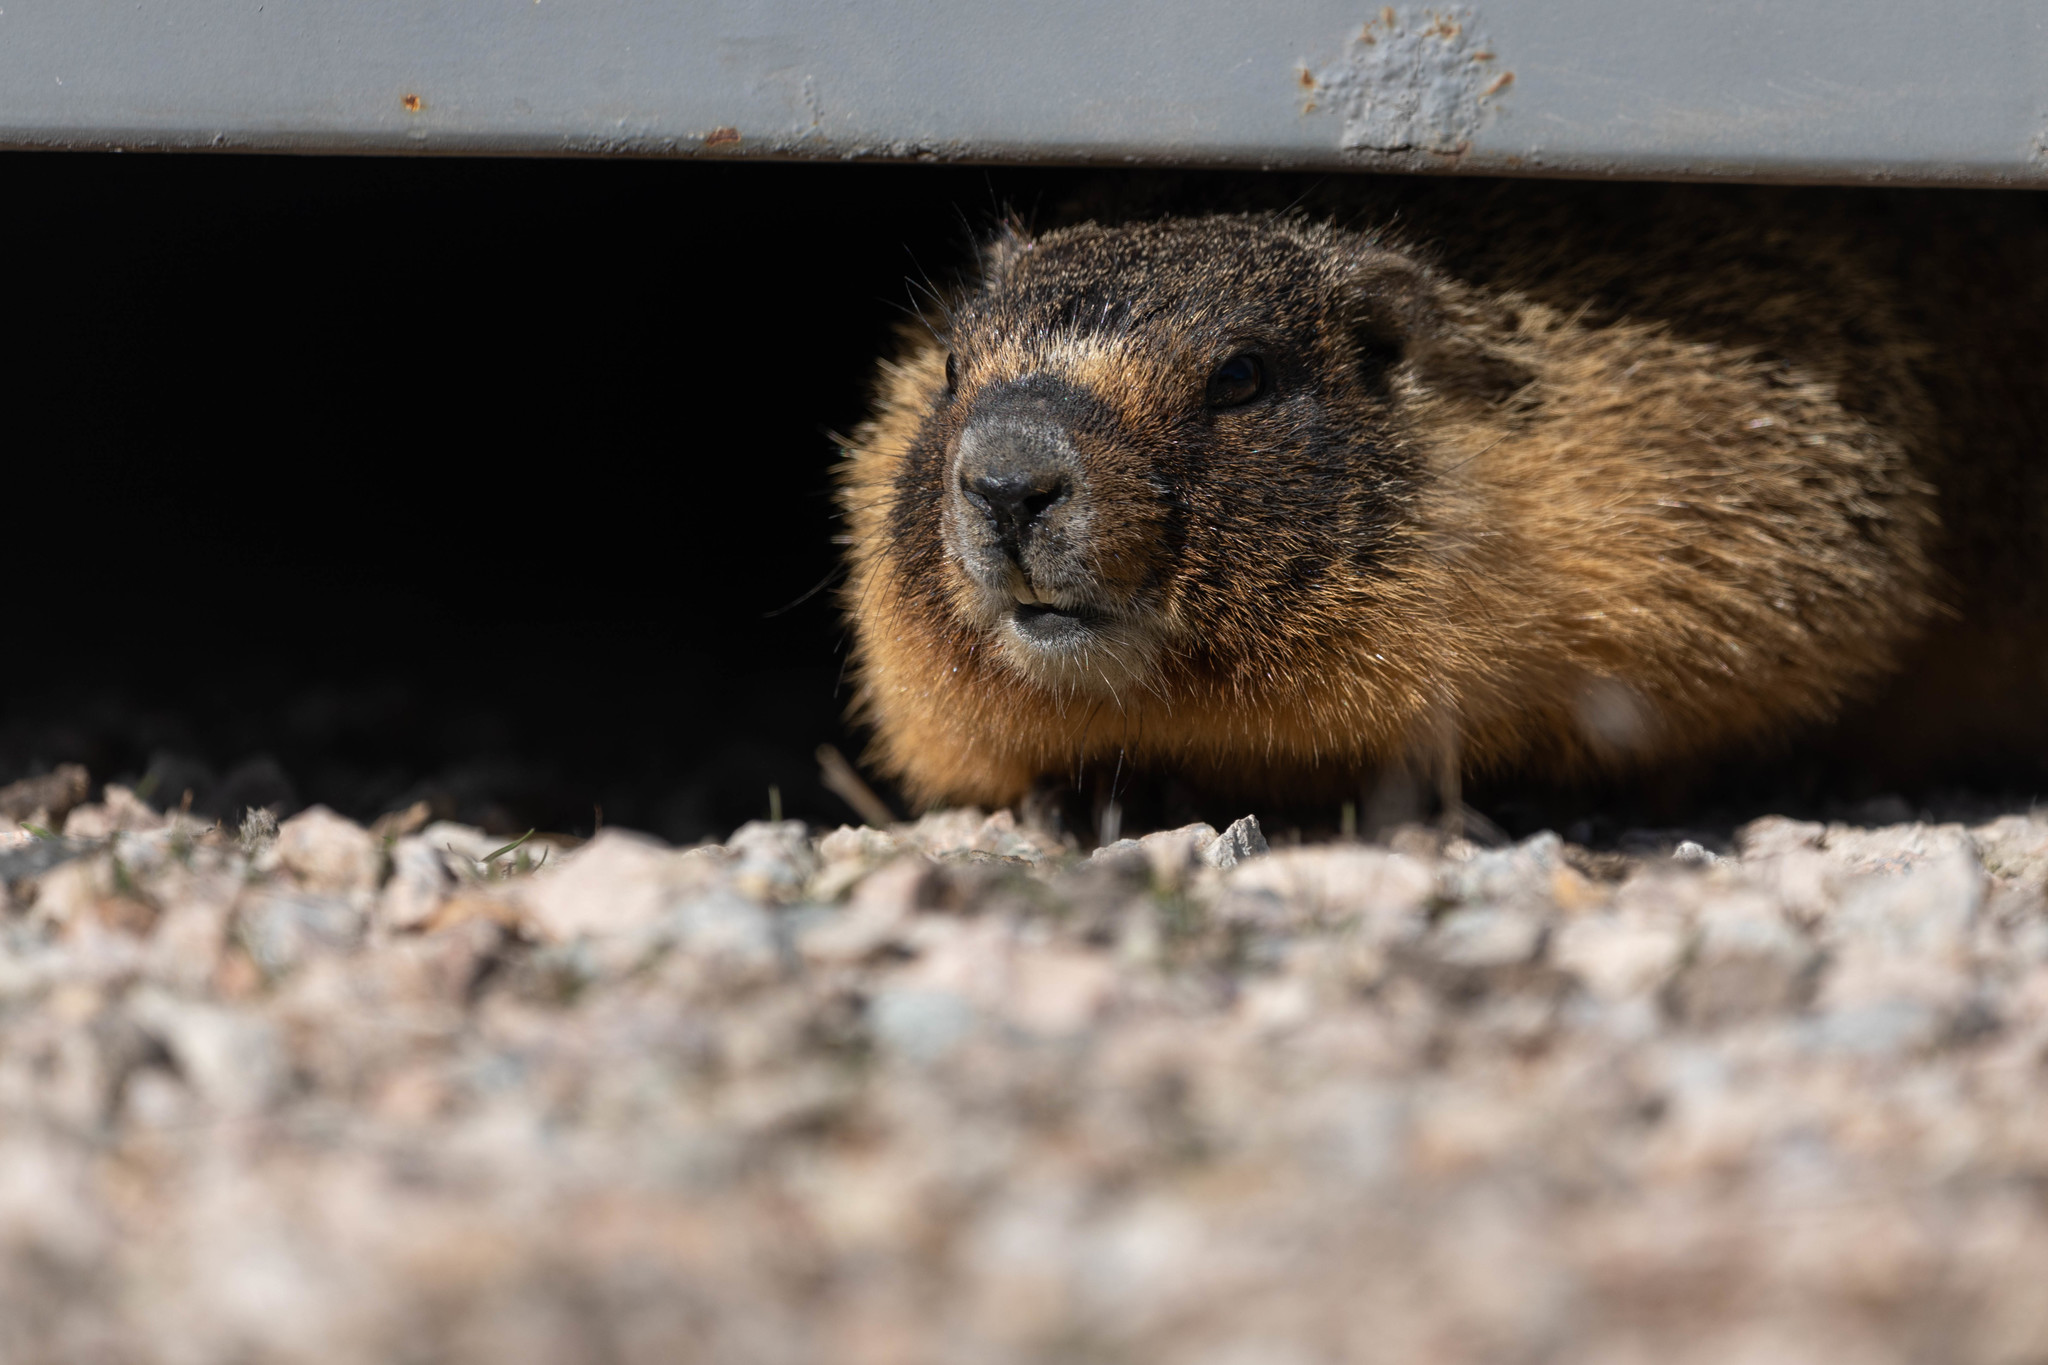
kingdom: Animalia
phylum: Chordata
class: Mammalia
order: Rodentia
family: Sciuridae
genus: Marmota
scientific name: Marmota flaviventris
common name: Yellow-bellied marmot
